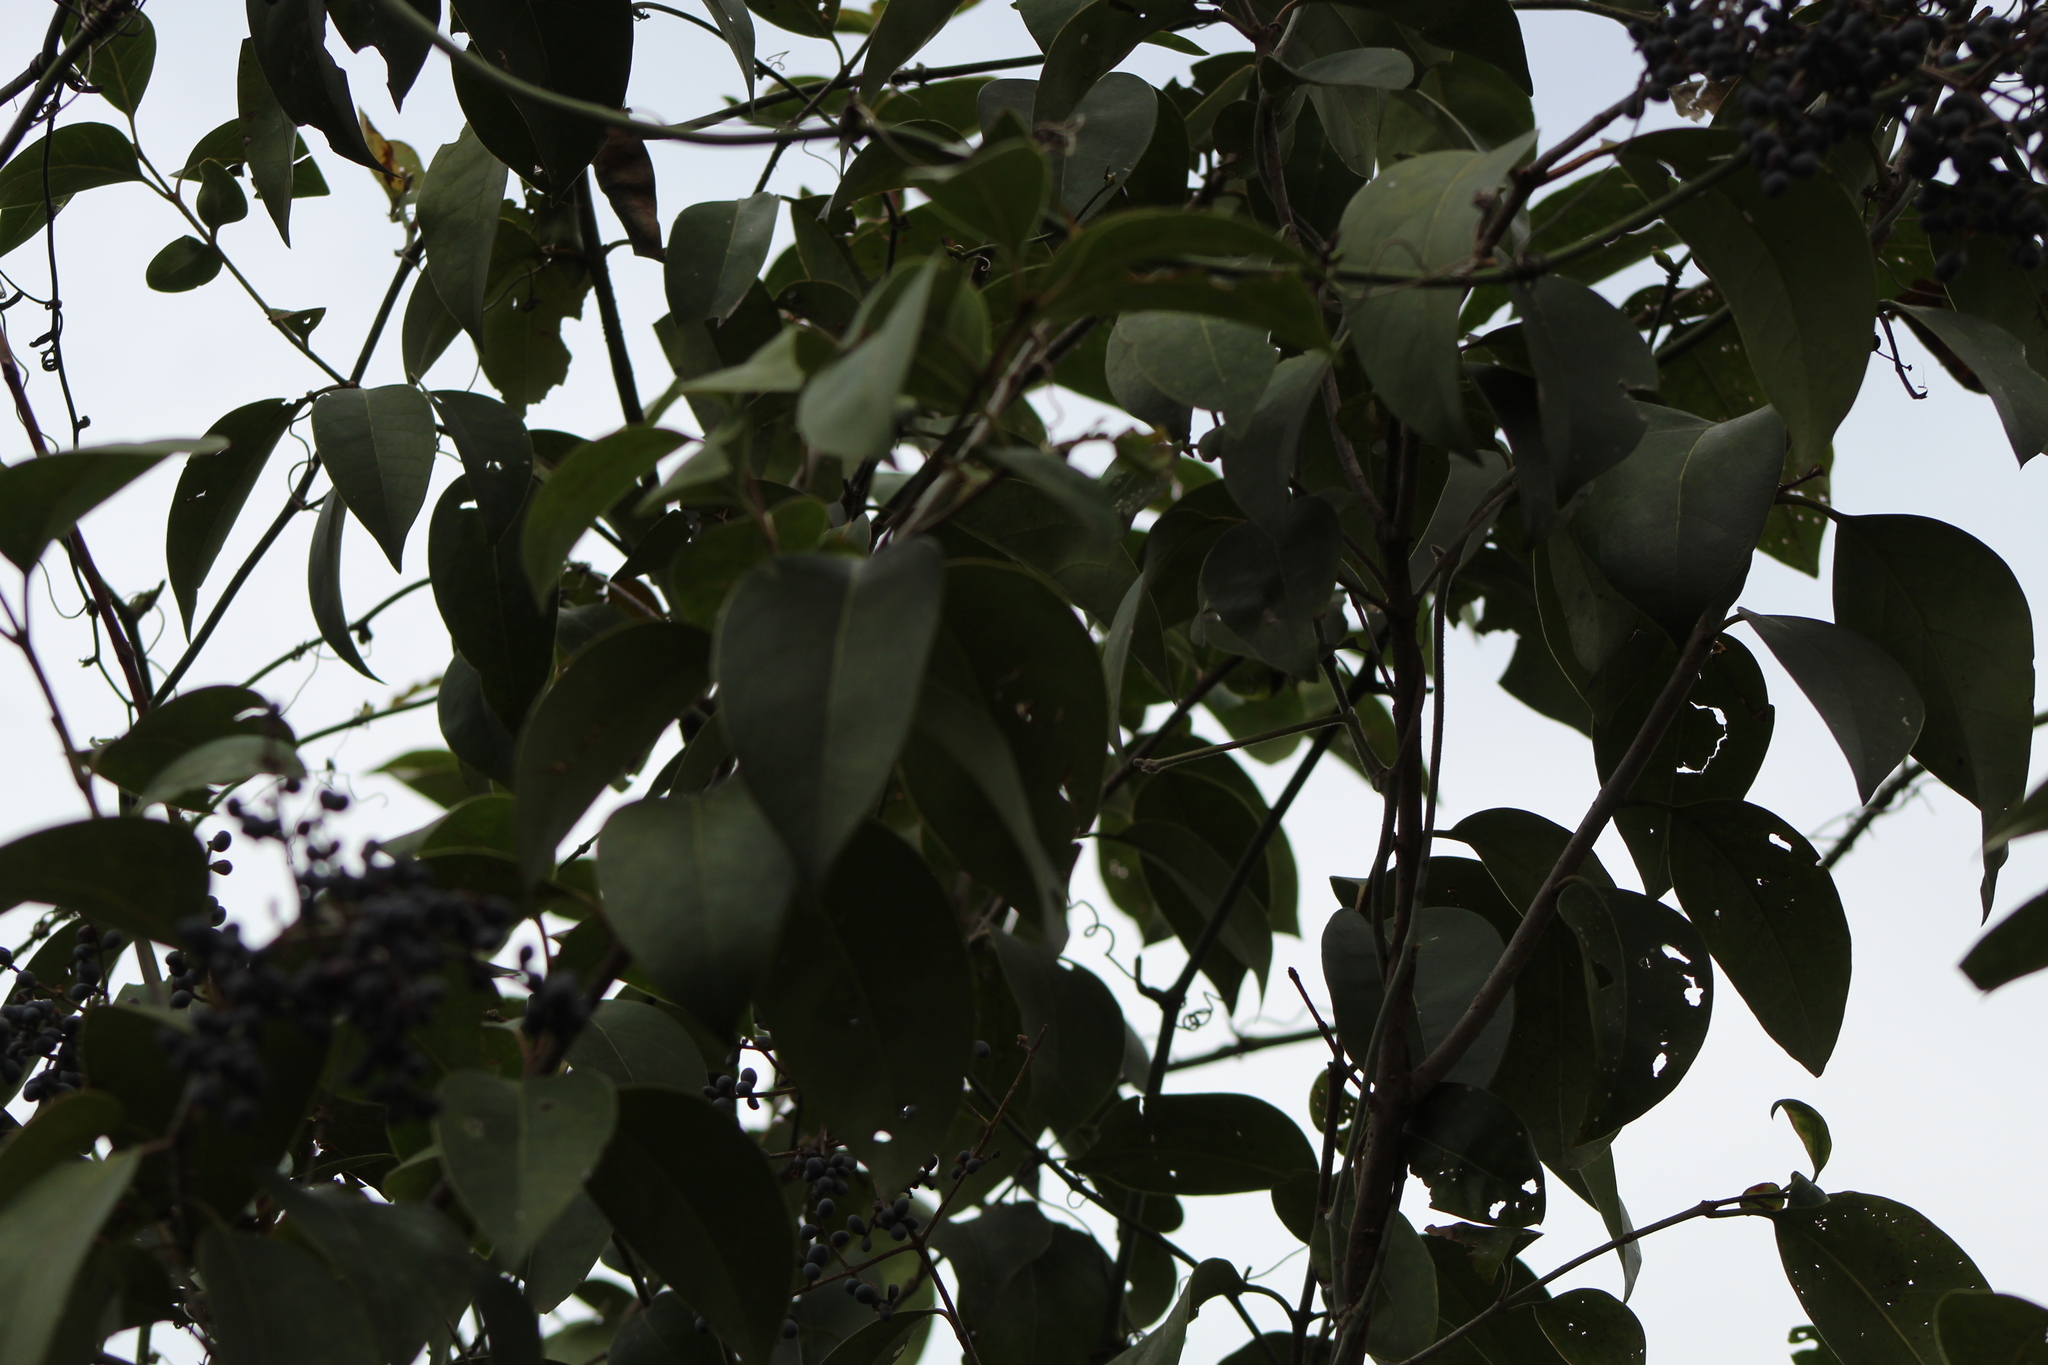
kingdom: Plantae
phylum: Tracheophyta
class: Magnoliopsida
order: Lamiales
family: Oleaceae
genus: Ligustrum
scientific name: Ligustrum lucidum
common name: Glossy privet
